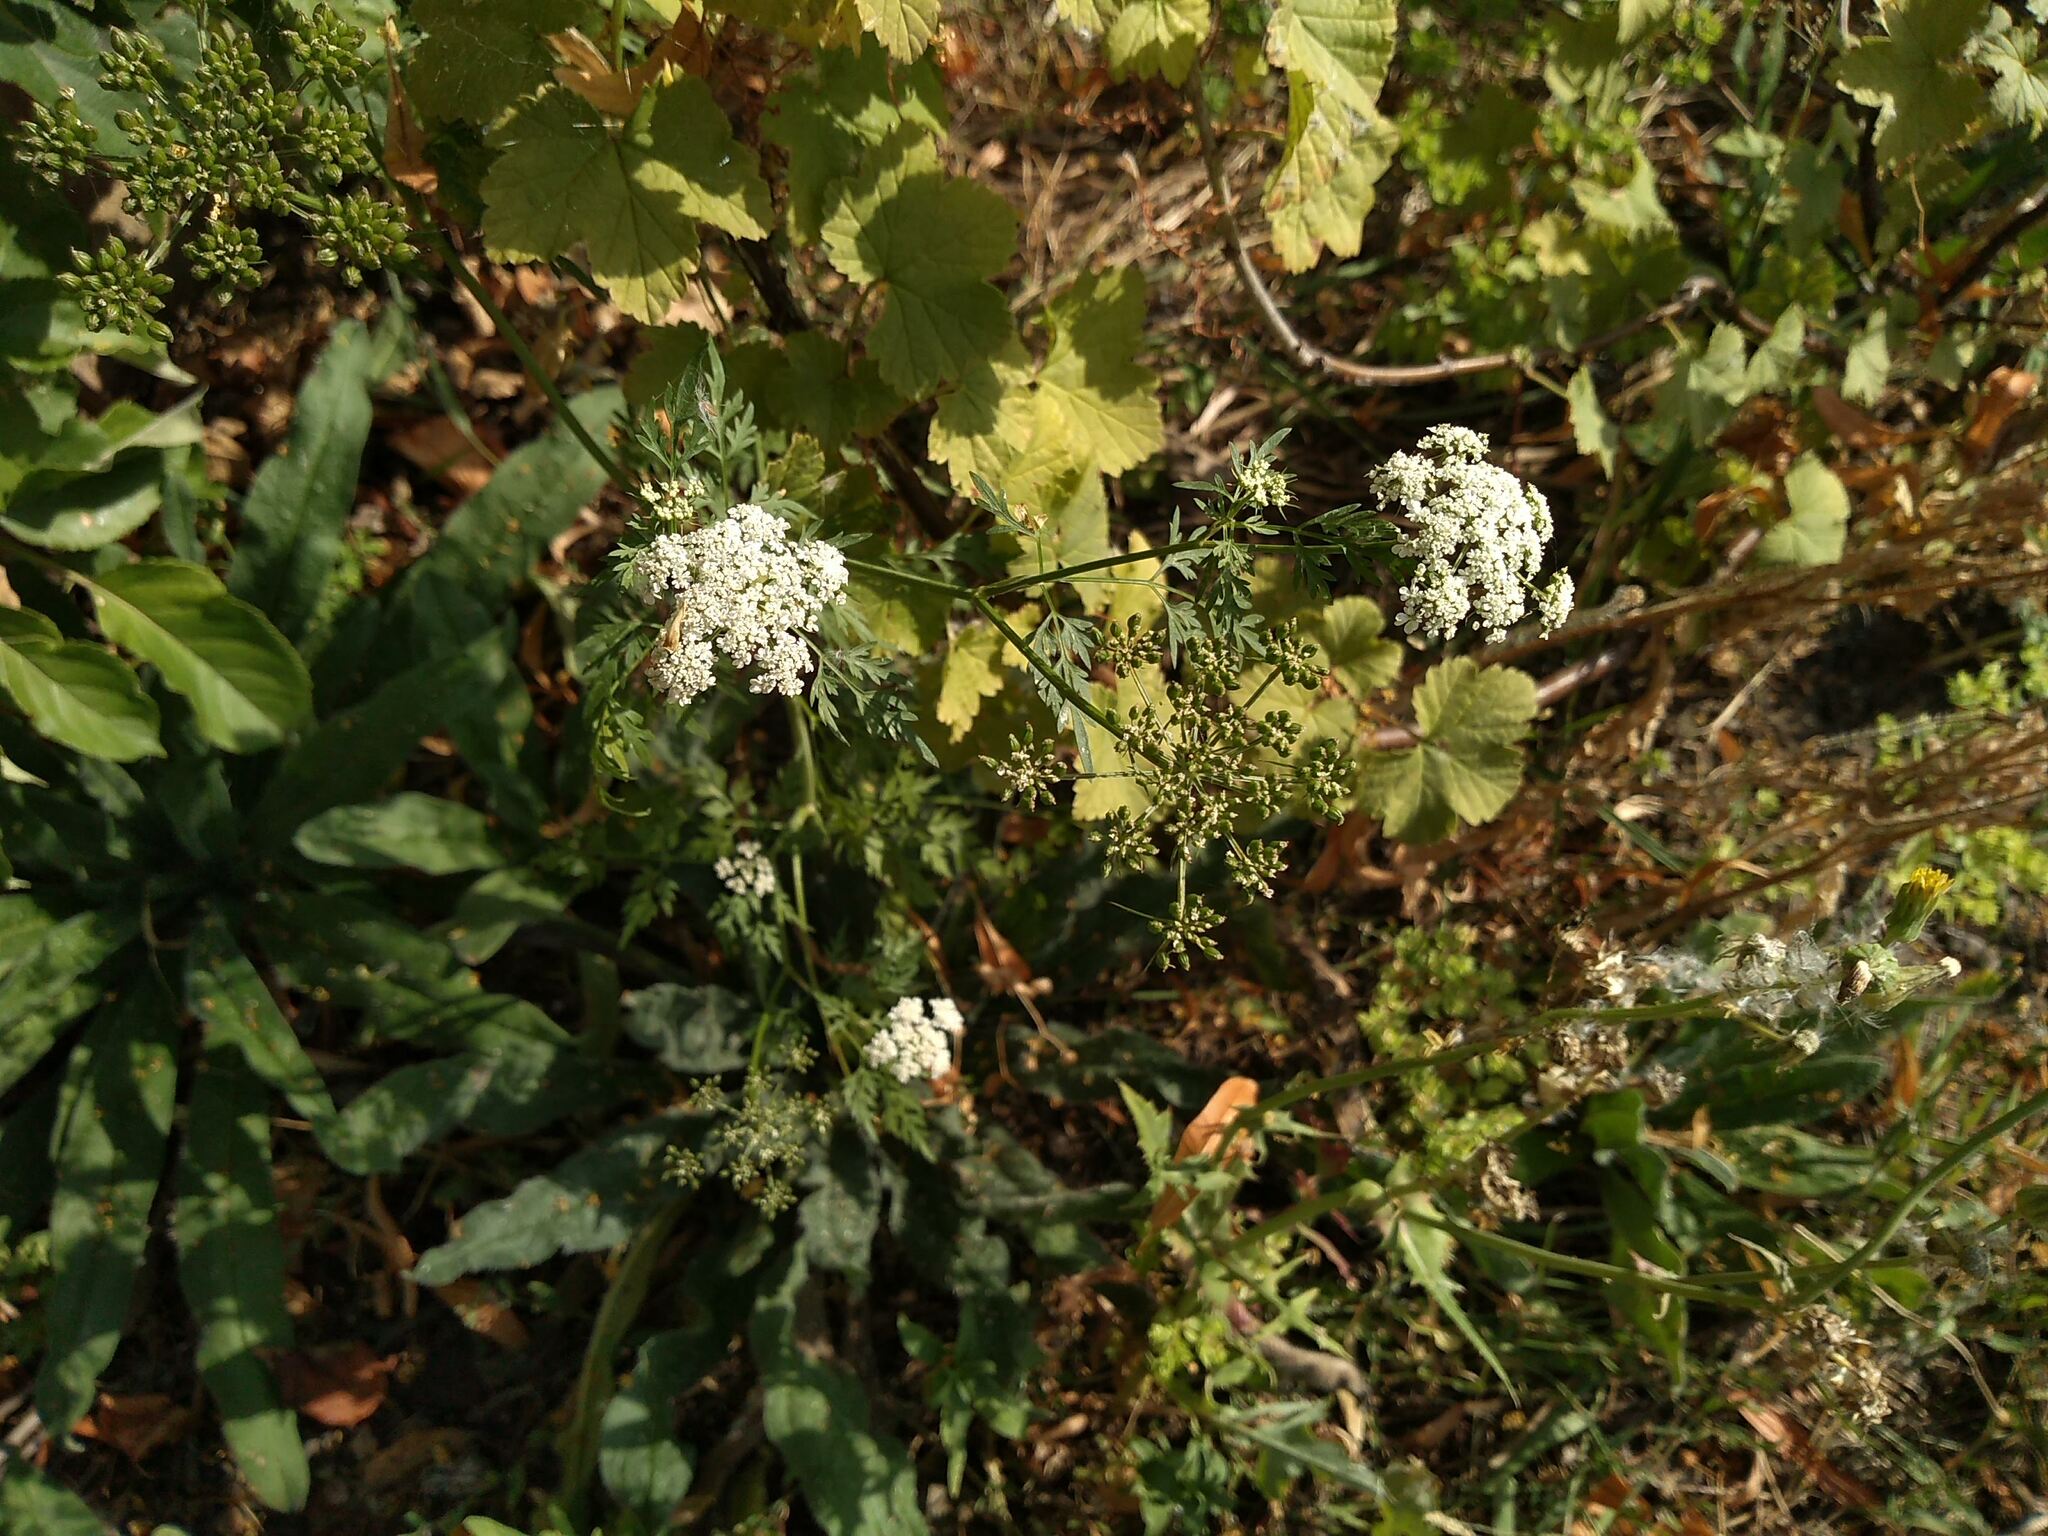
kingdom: Plantae
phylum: Tracheophyta
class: Magnoliopsida
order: Apiales
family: Apiaceae
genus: Aethusa
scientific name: Aethusa cynapium
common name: Fool's parsley
